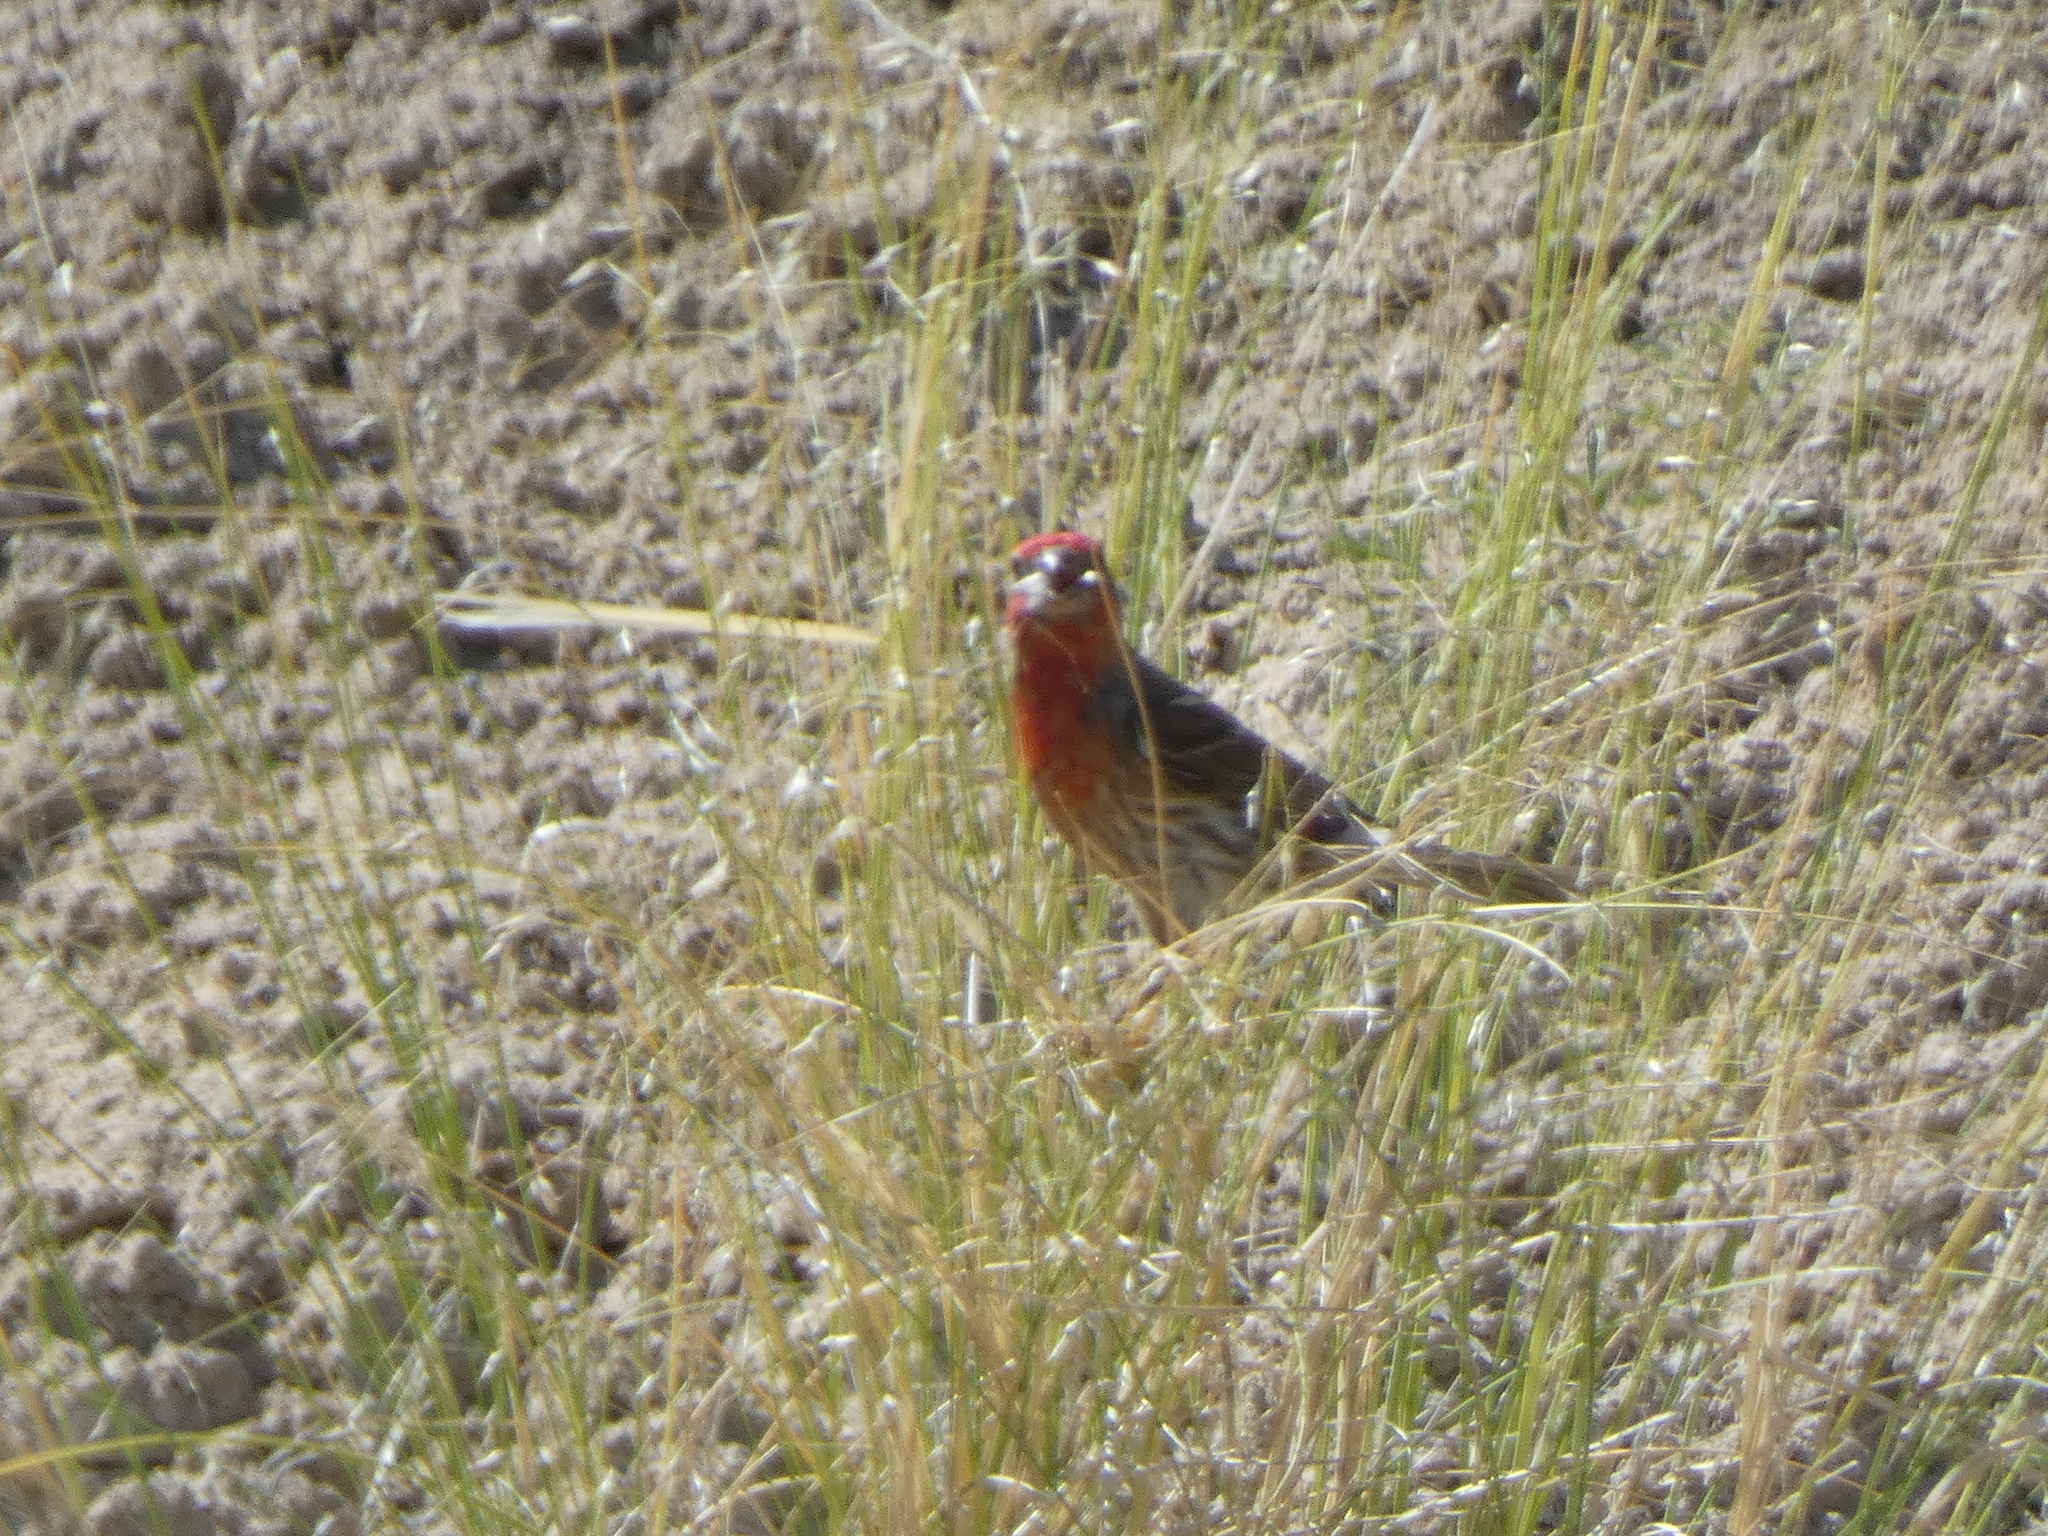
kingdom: Animalia
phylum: Chordata
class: Aves
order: Passeriformes
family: Fringillidae
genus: Haemorhous
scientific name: Haemorhous mexicanus
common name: House finch
